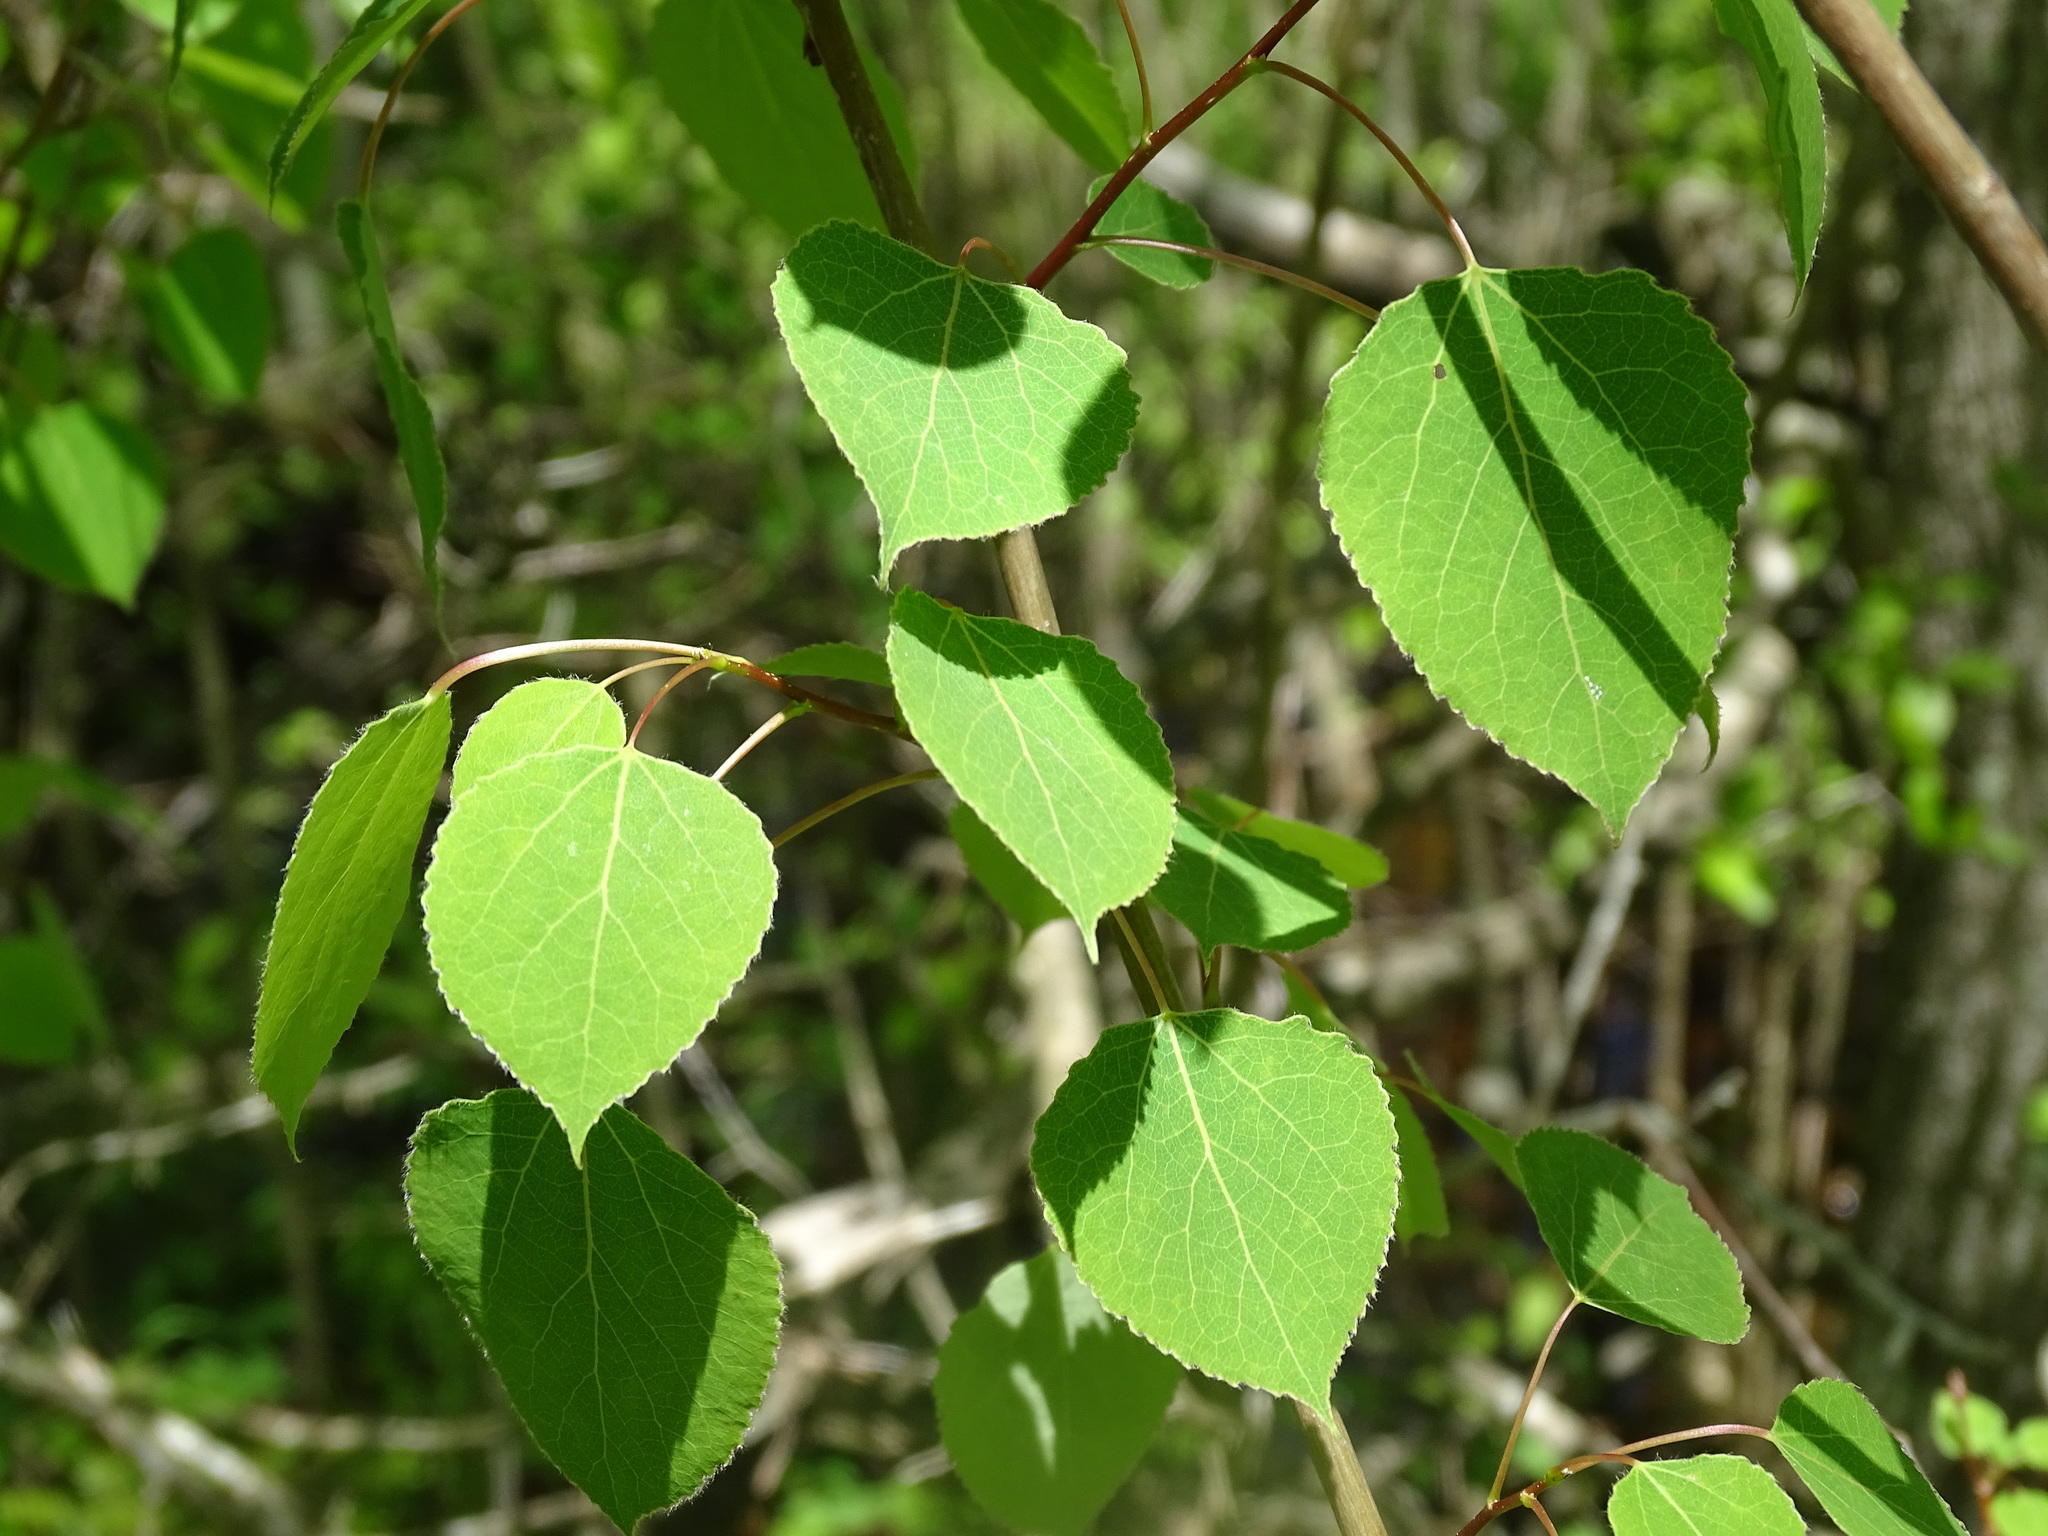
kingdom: Plantae
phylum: Tracheophyta
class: Magnoliopsida
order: Malpighiales
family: Salicaceae
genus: Populus
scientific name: Populus tremuloides
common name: Quaking aspen
